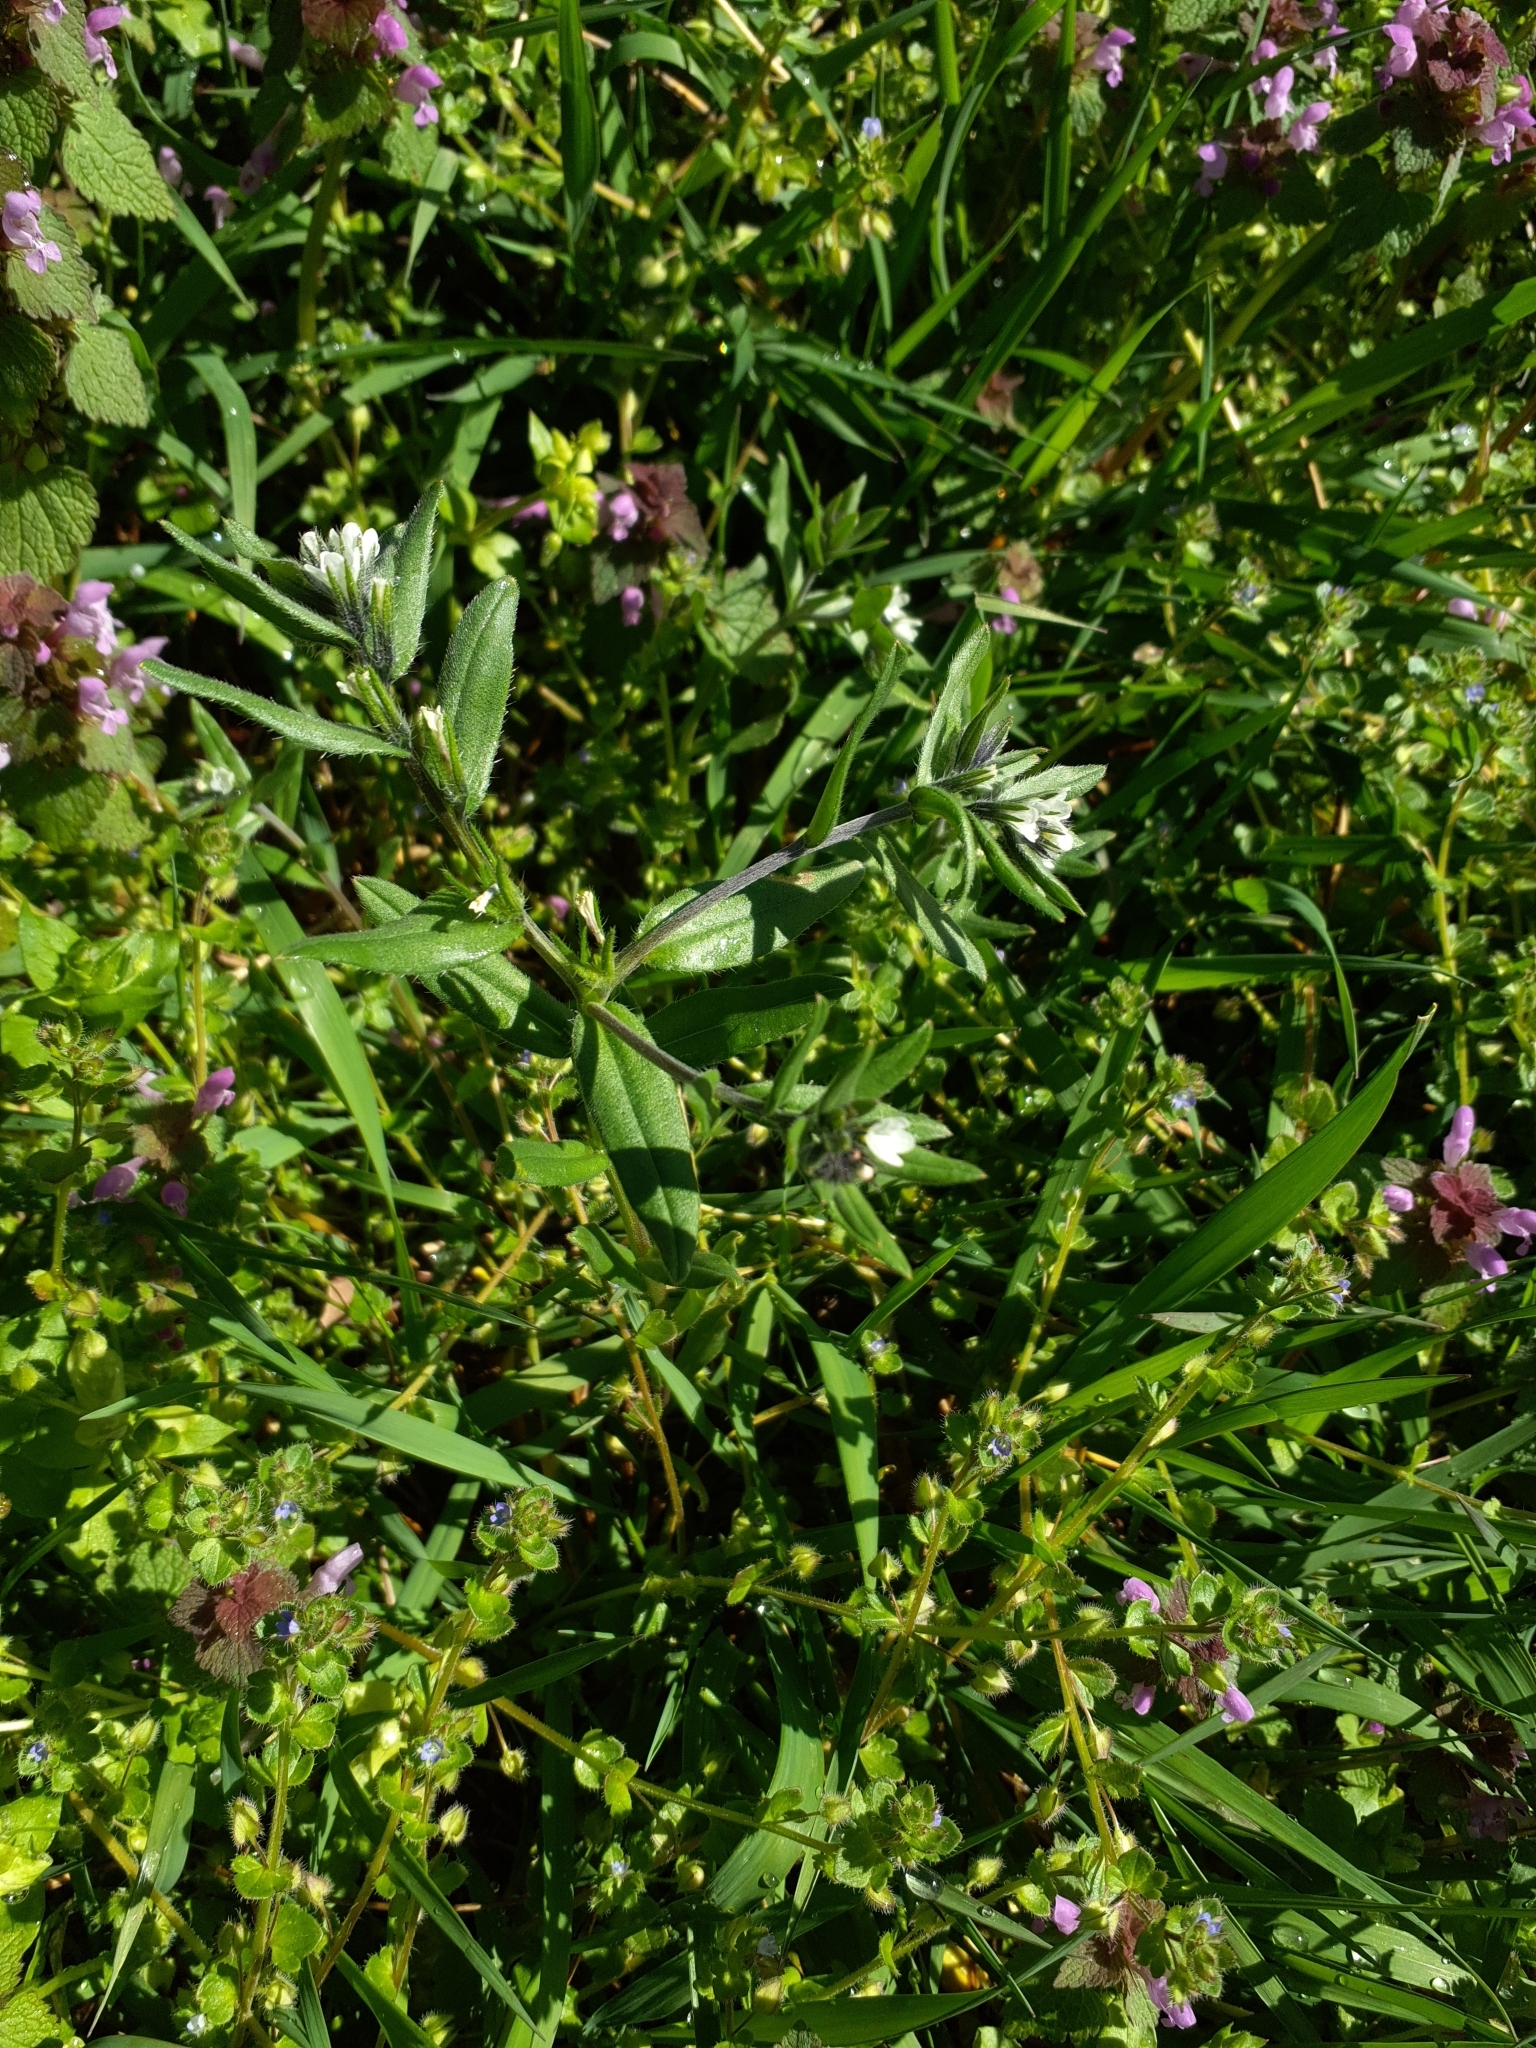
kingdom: Plantae
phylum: Tracheophyta
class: Magnoliopsida
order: Boraginales
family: Boraginaceae
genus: Buglossoides
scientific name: Buglossoides arvensis
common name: Corn gromwell
